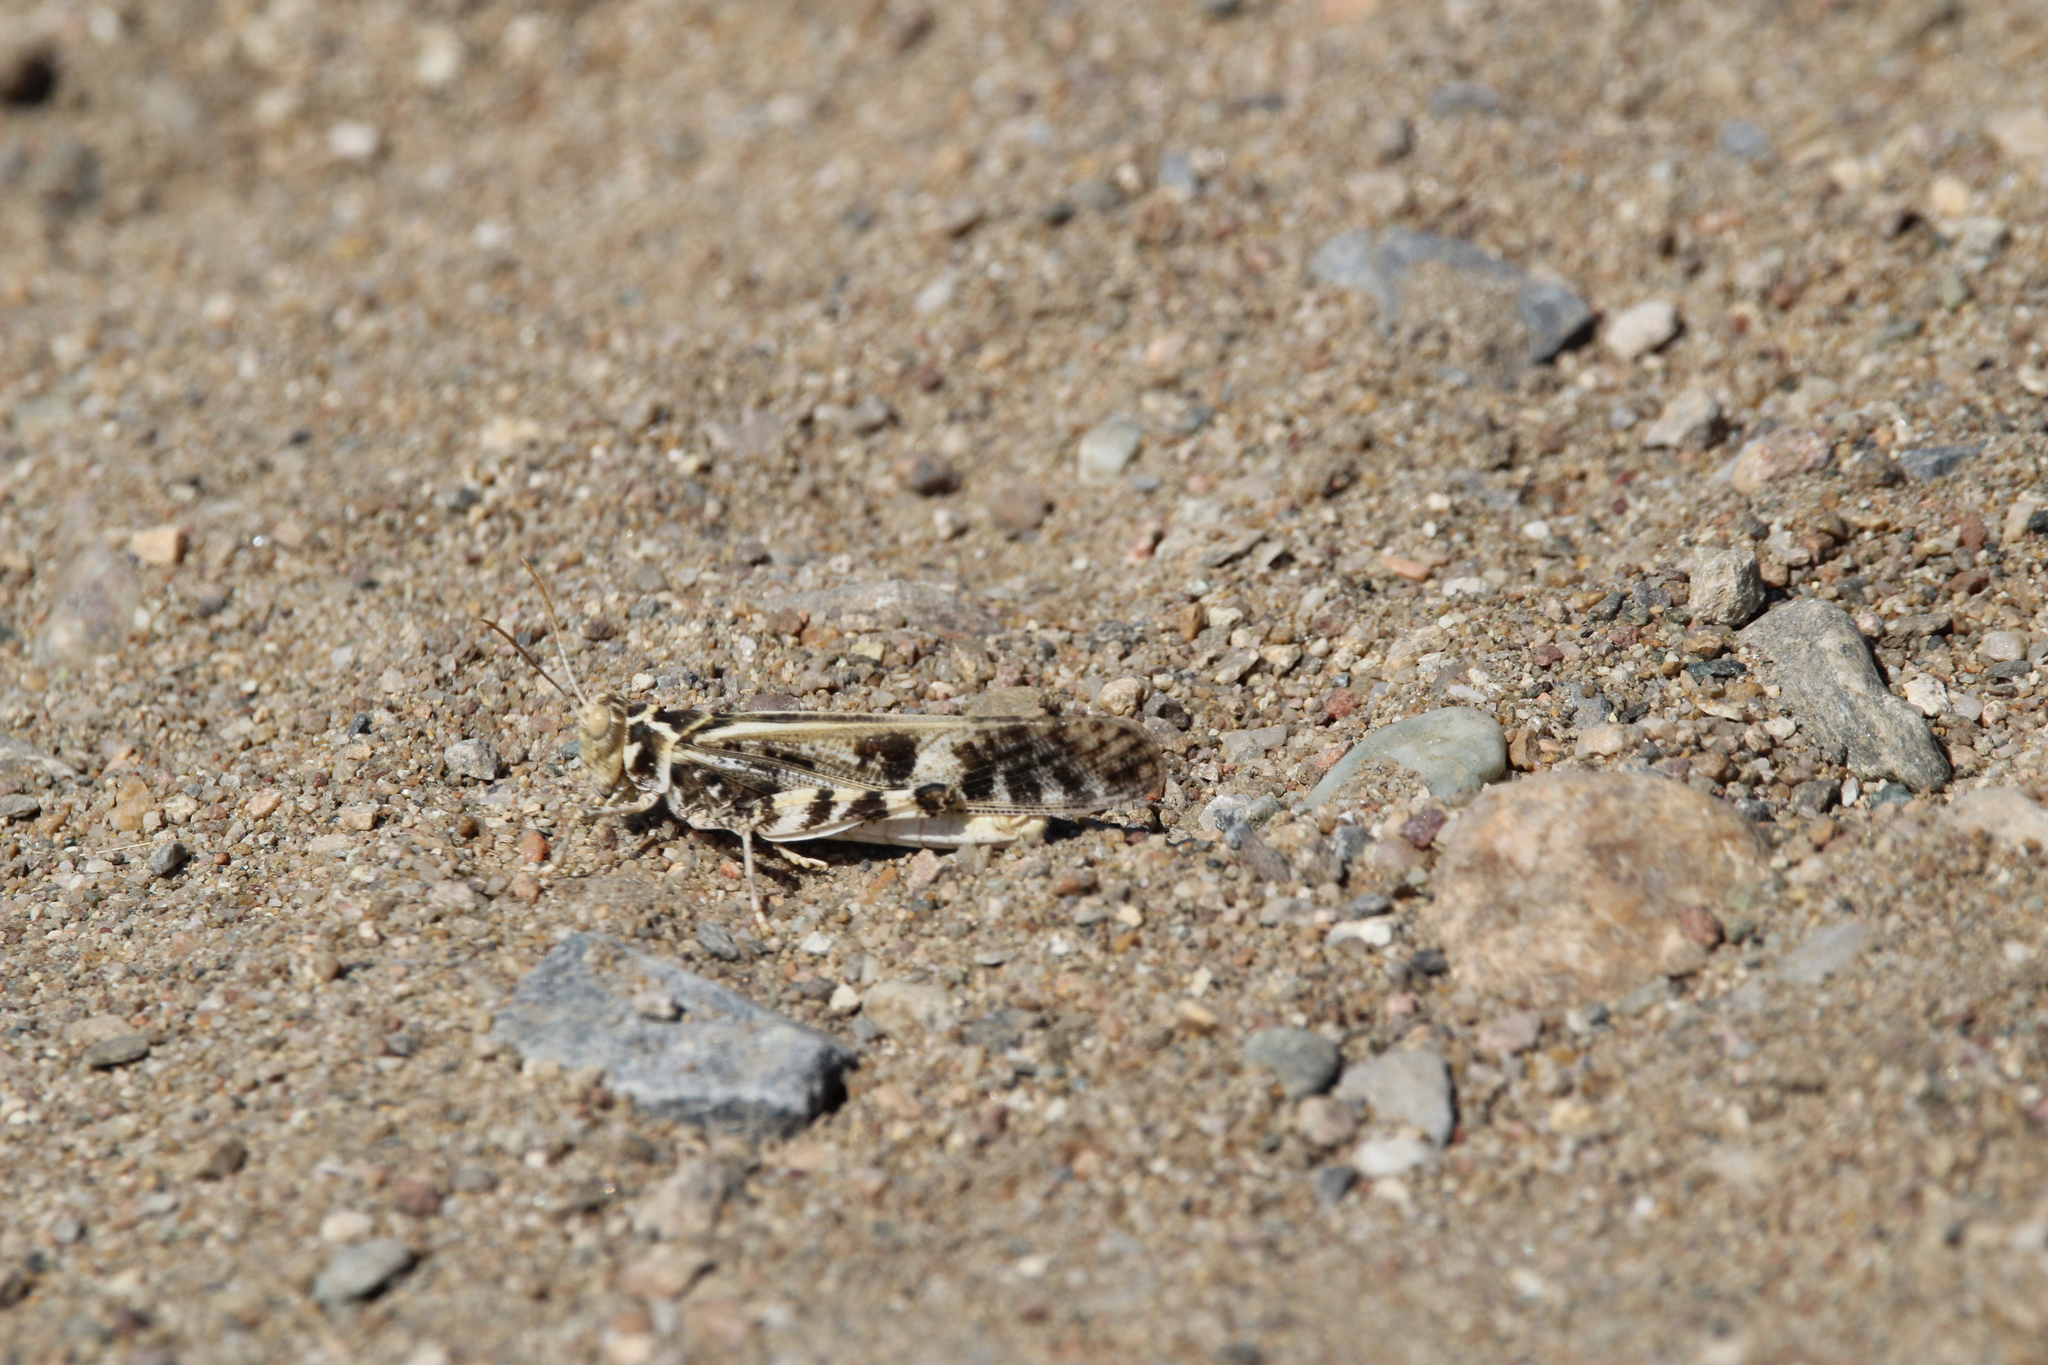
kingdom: Animalia
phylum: Arthropoda
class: Insecta
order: Orthoptera
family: Acrididae
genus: Dissosteira
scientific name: Dissosteira spurcata
